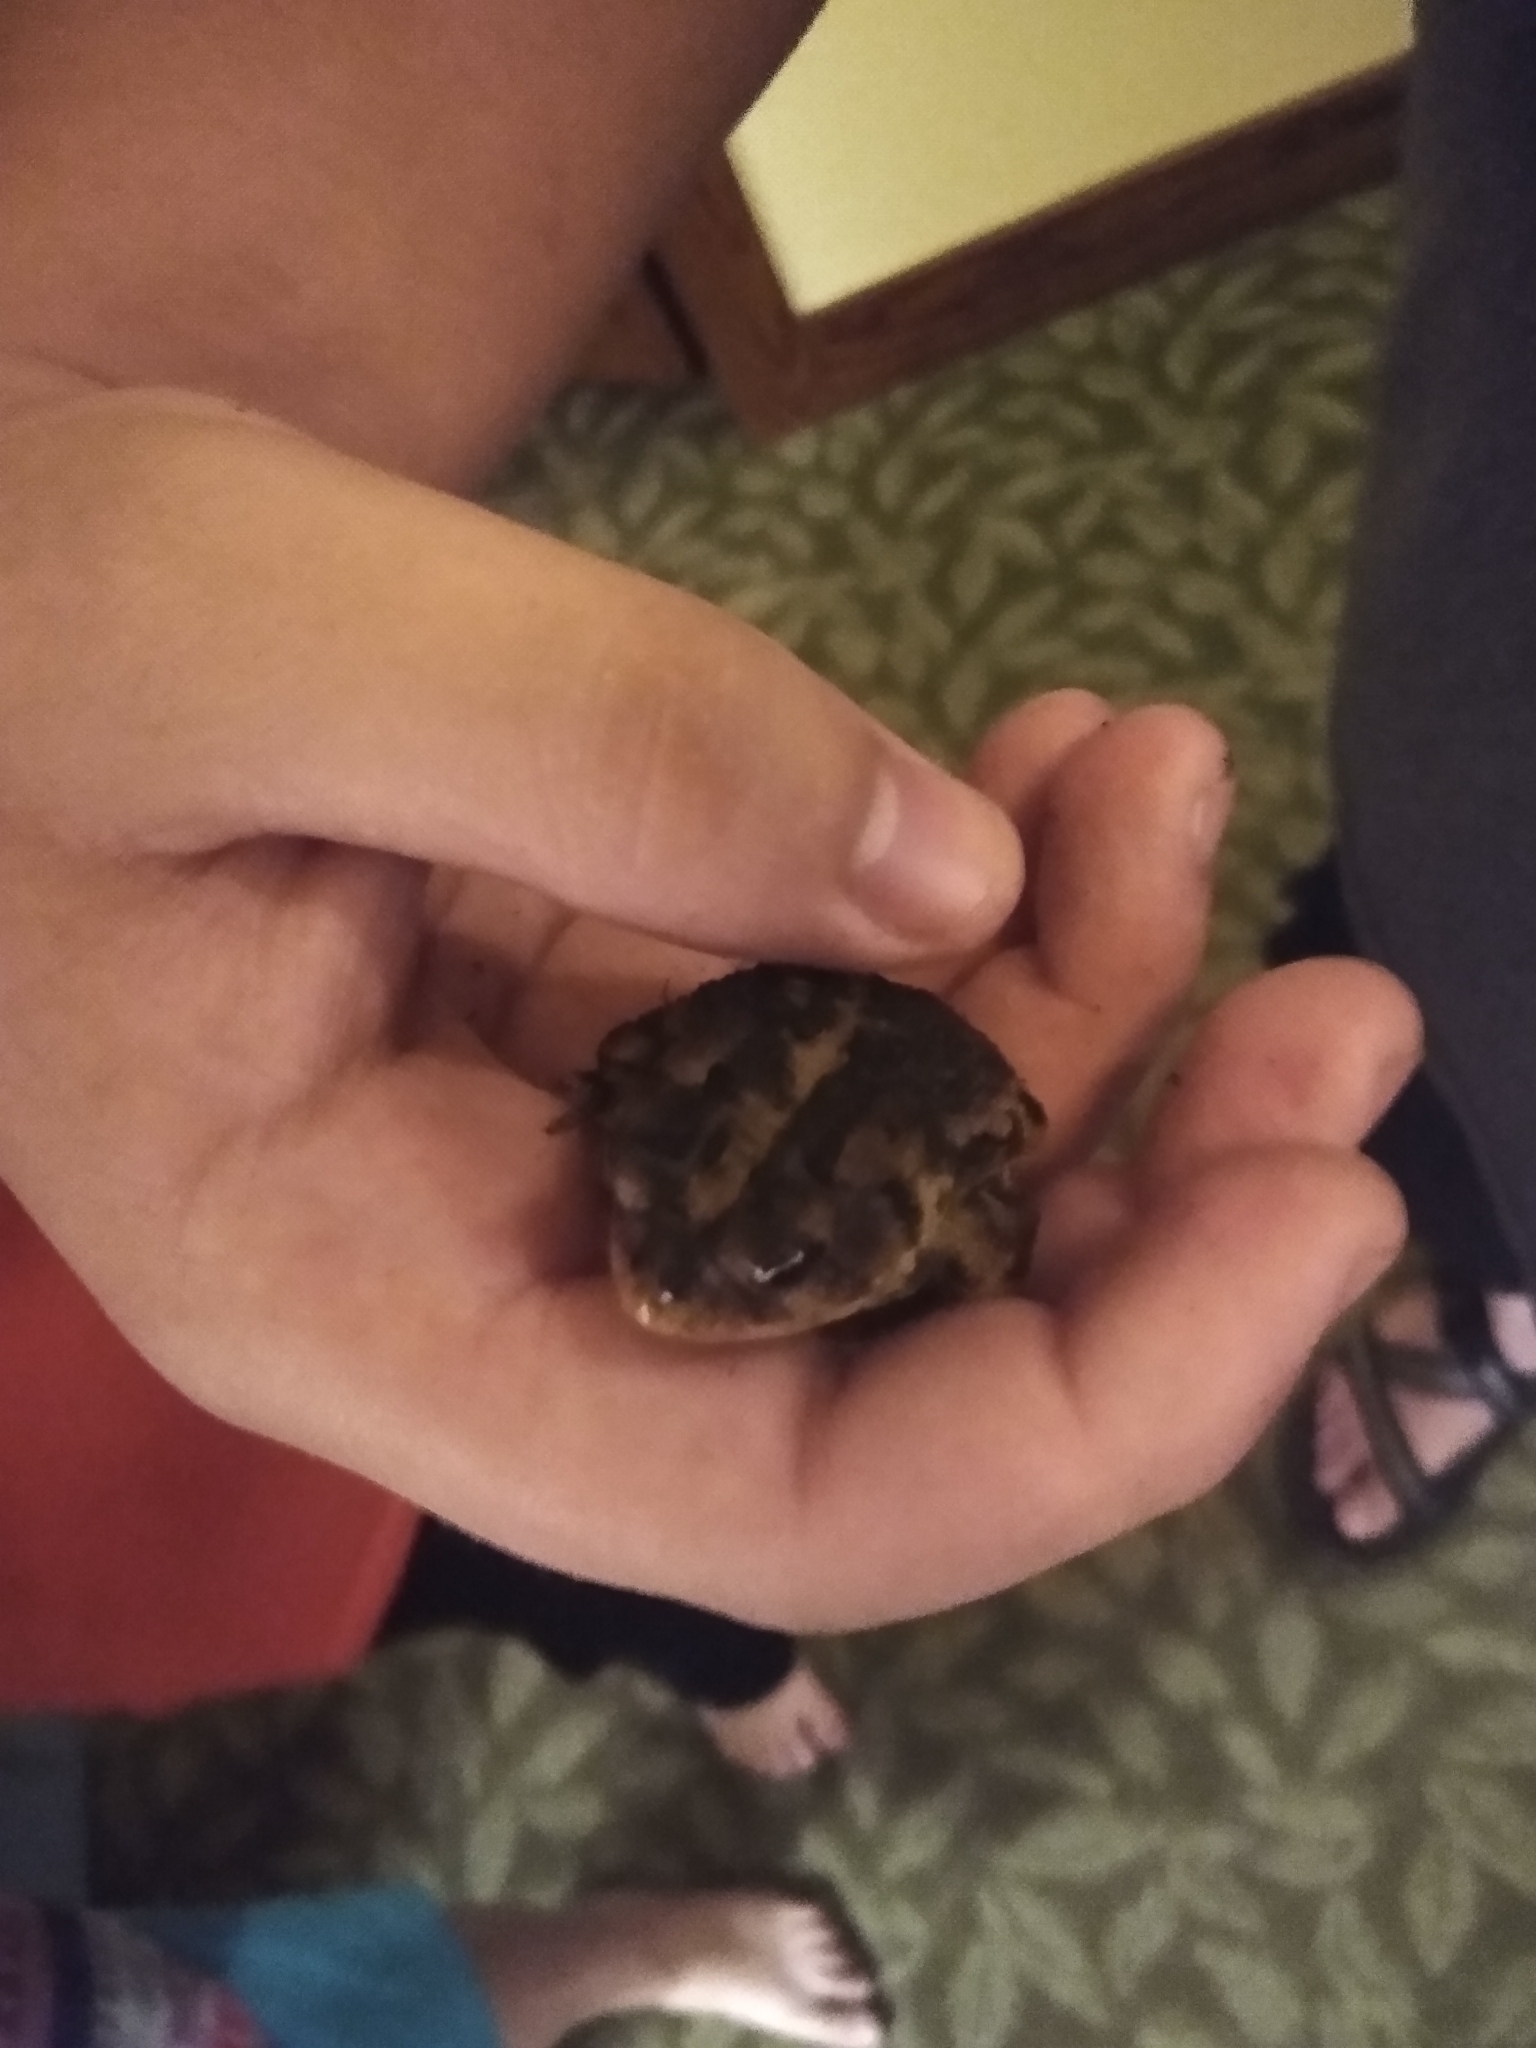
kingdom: Animalia
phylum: Chordata
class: Amphibia
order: Anura
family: Bufonidae
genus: Anaxyrus
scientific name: Anaxyrus terrestris
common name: Southern toad
